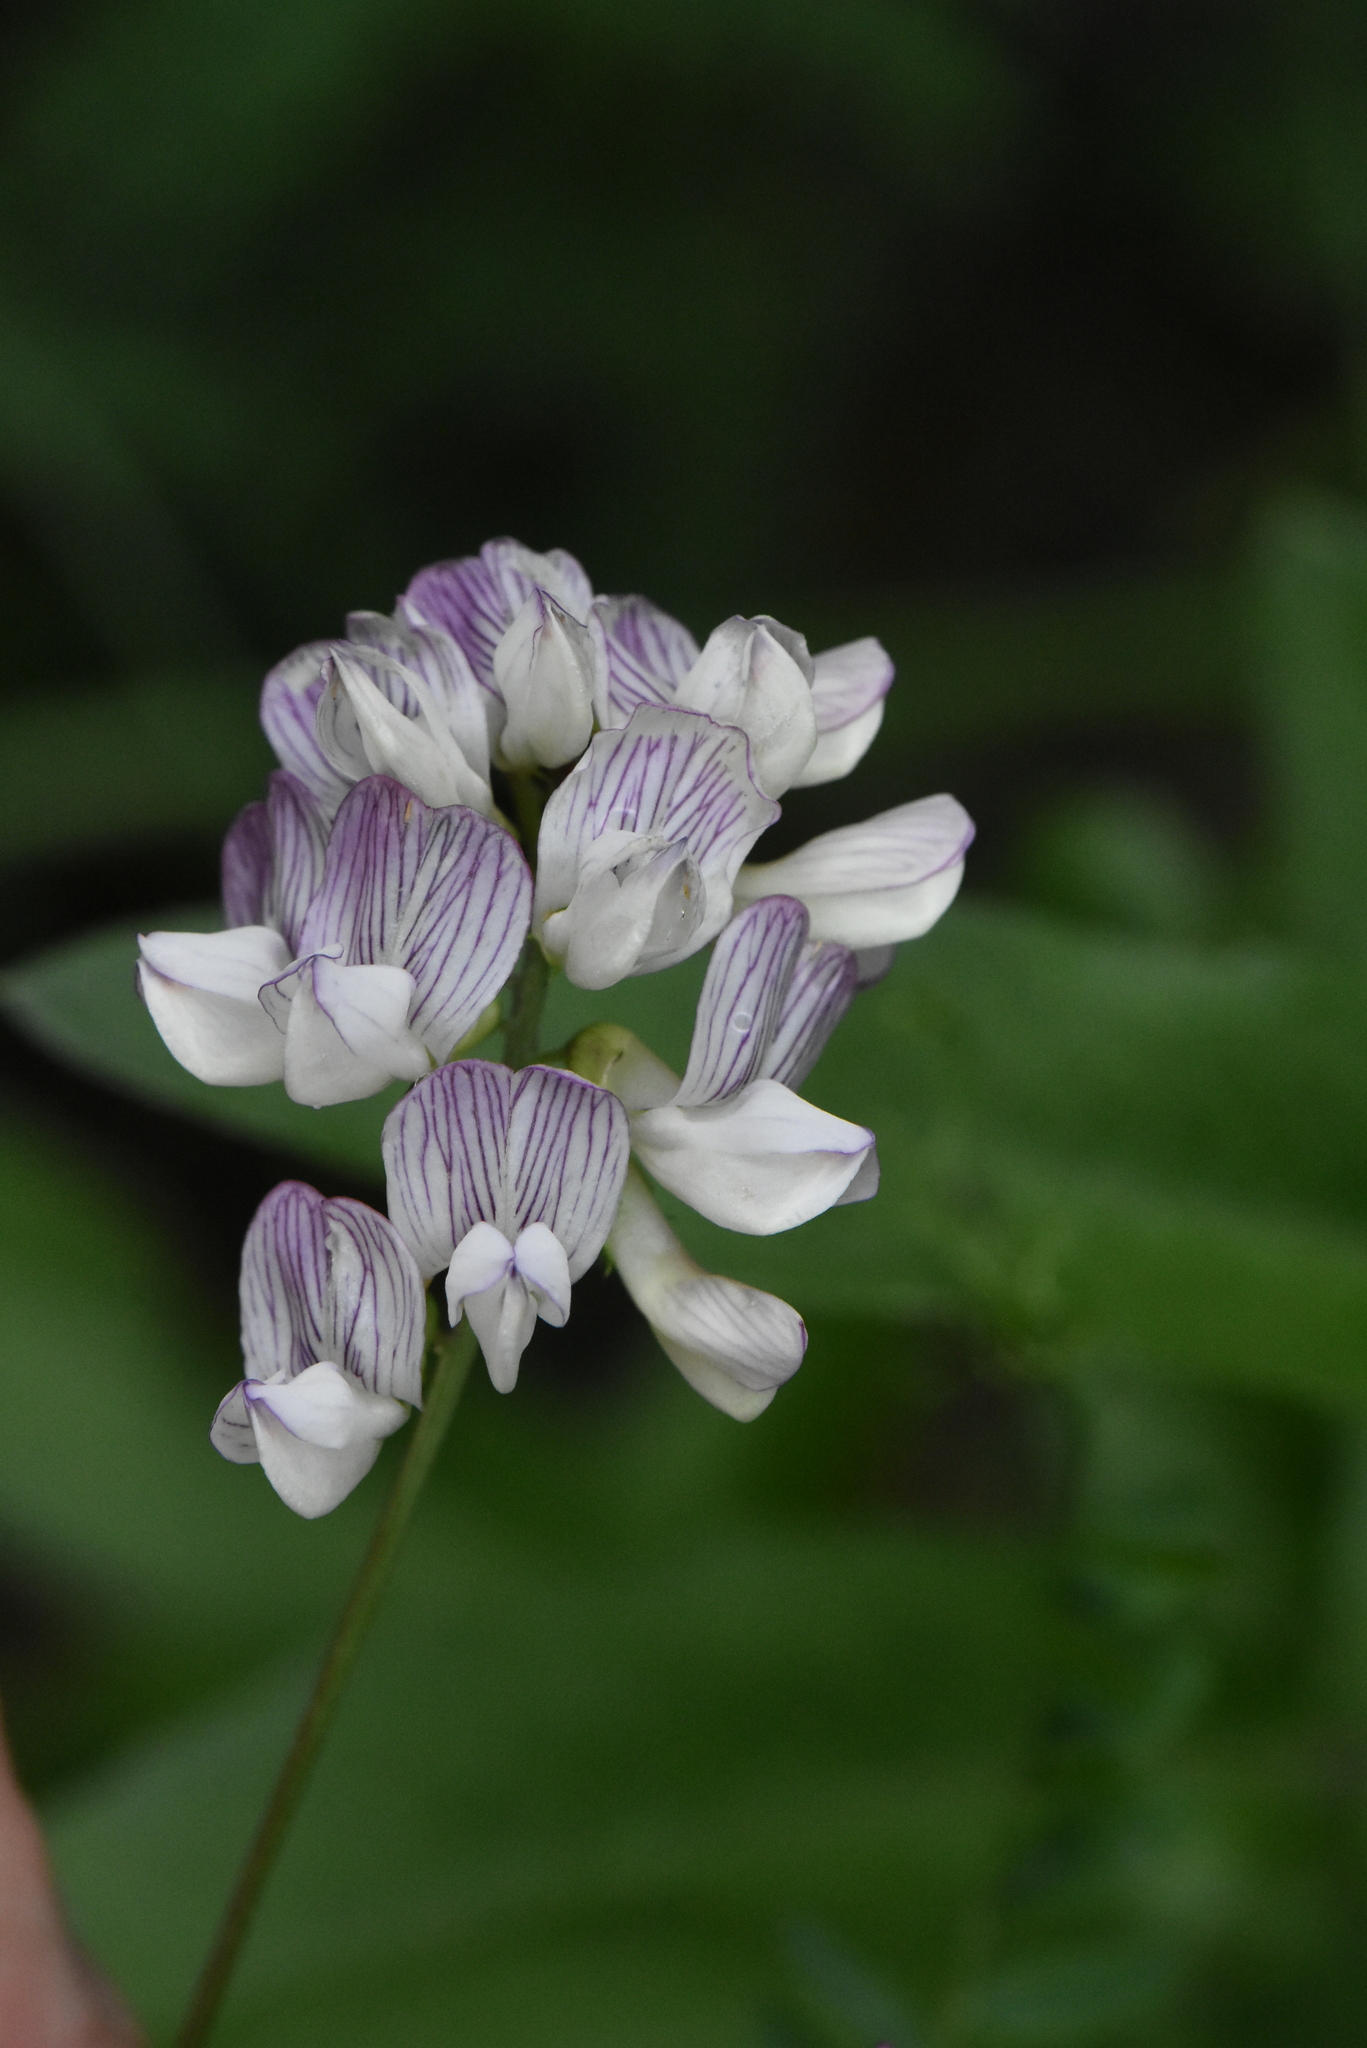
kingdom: Plantae
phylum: Tracheophyta
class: Magnoliopsida
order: Fabales
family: Fabaceae
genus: Vicia
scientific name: Vicia sylvatica
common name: Wood vetch
